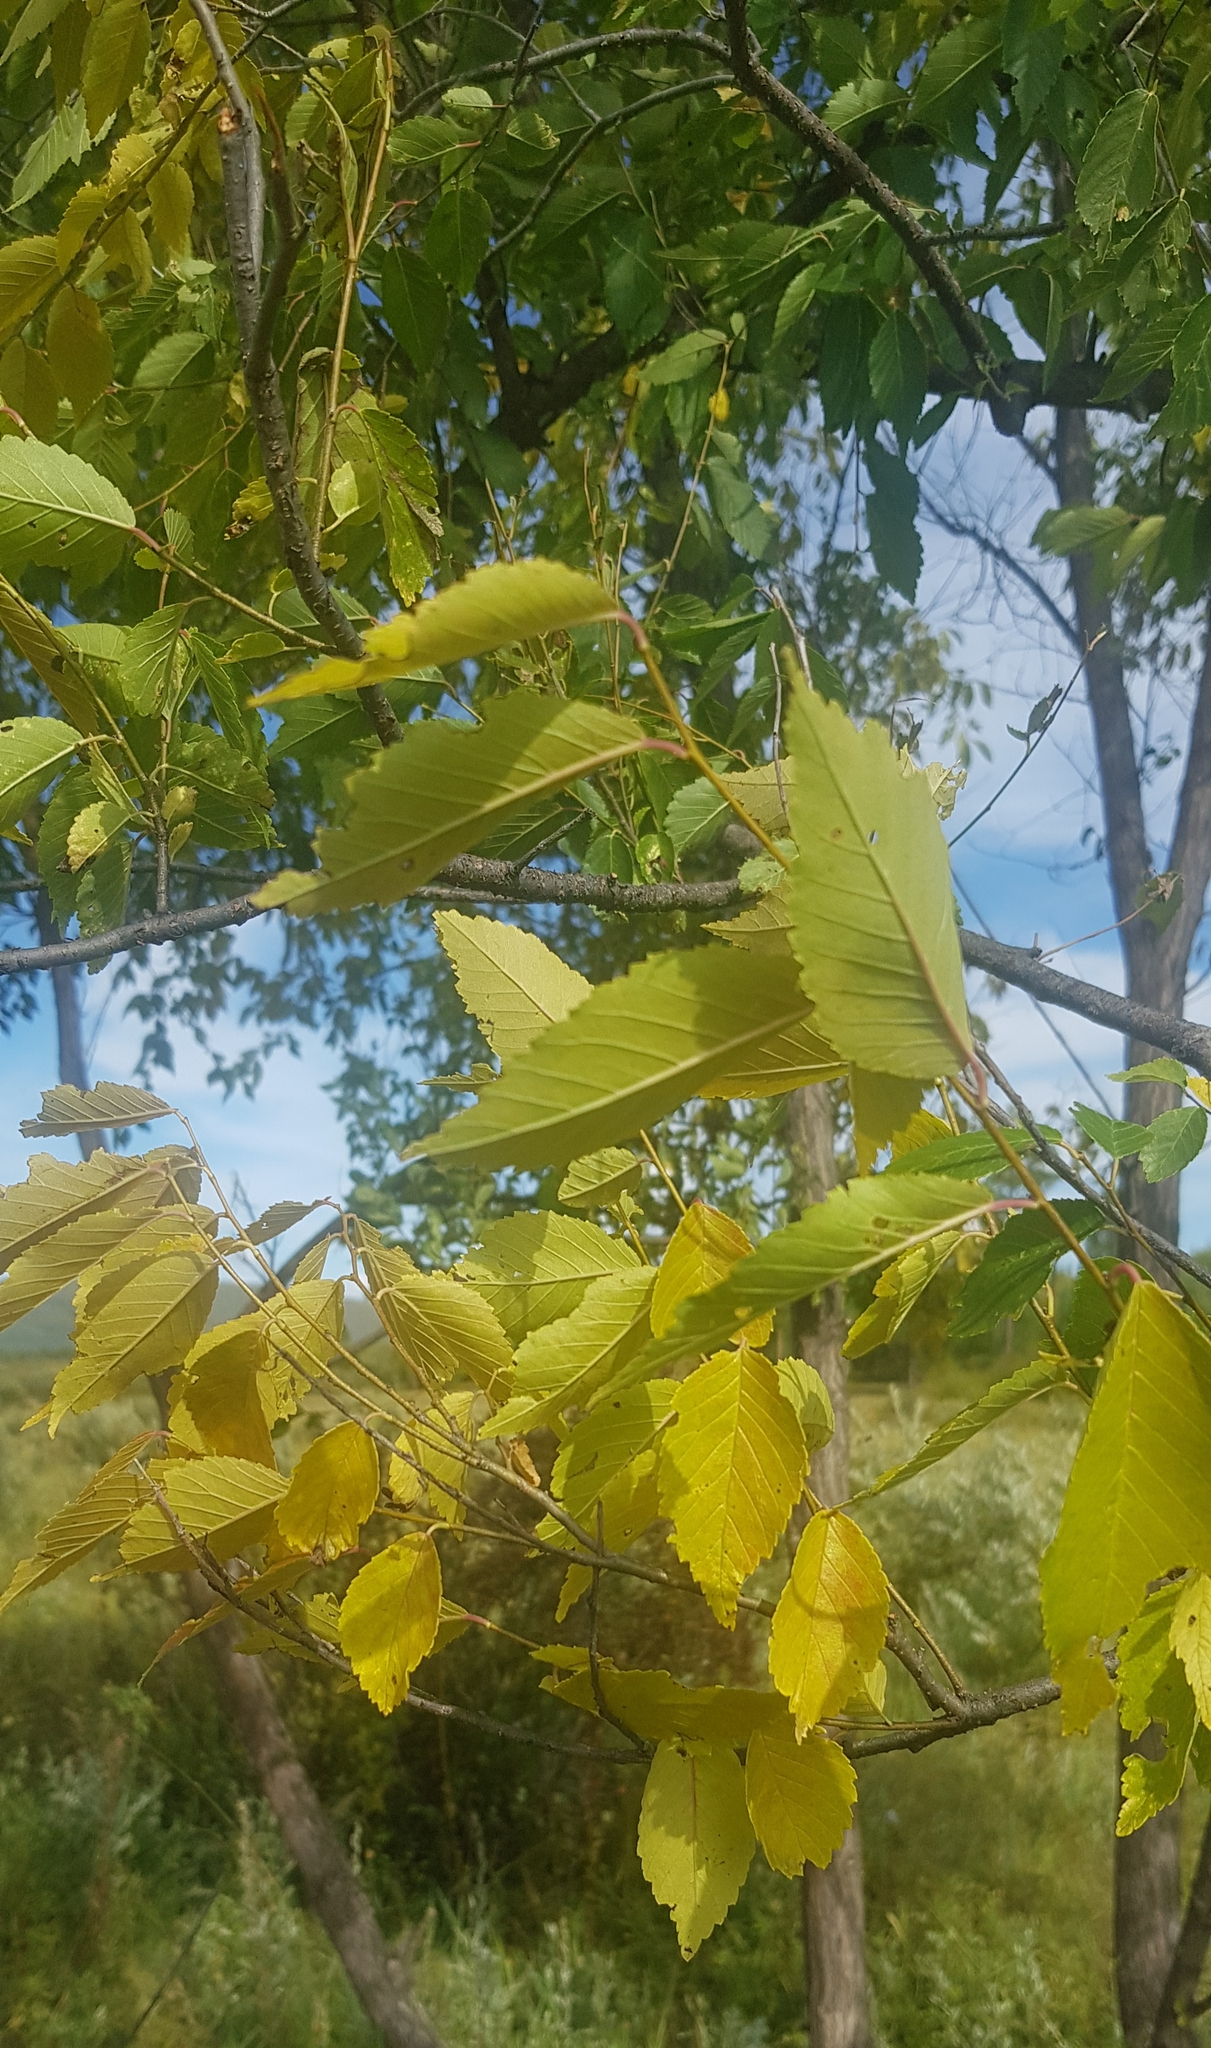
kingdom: Plantae
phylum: Tracheophyta
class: Magnoliopsida
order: Rosales
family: Ulmaceae
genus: Ulmus
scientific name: Ulmus davidiana
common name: Japanese elm
